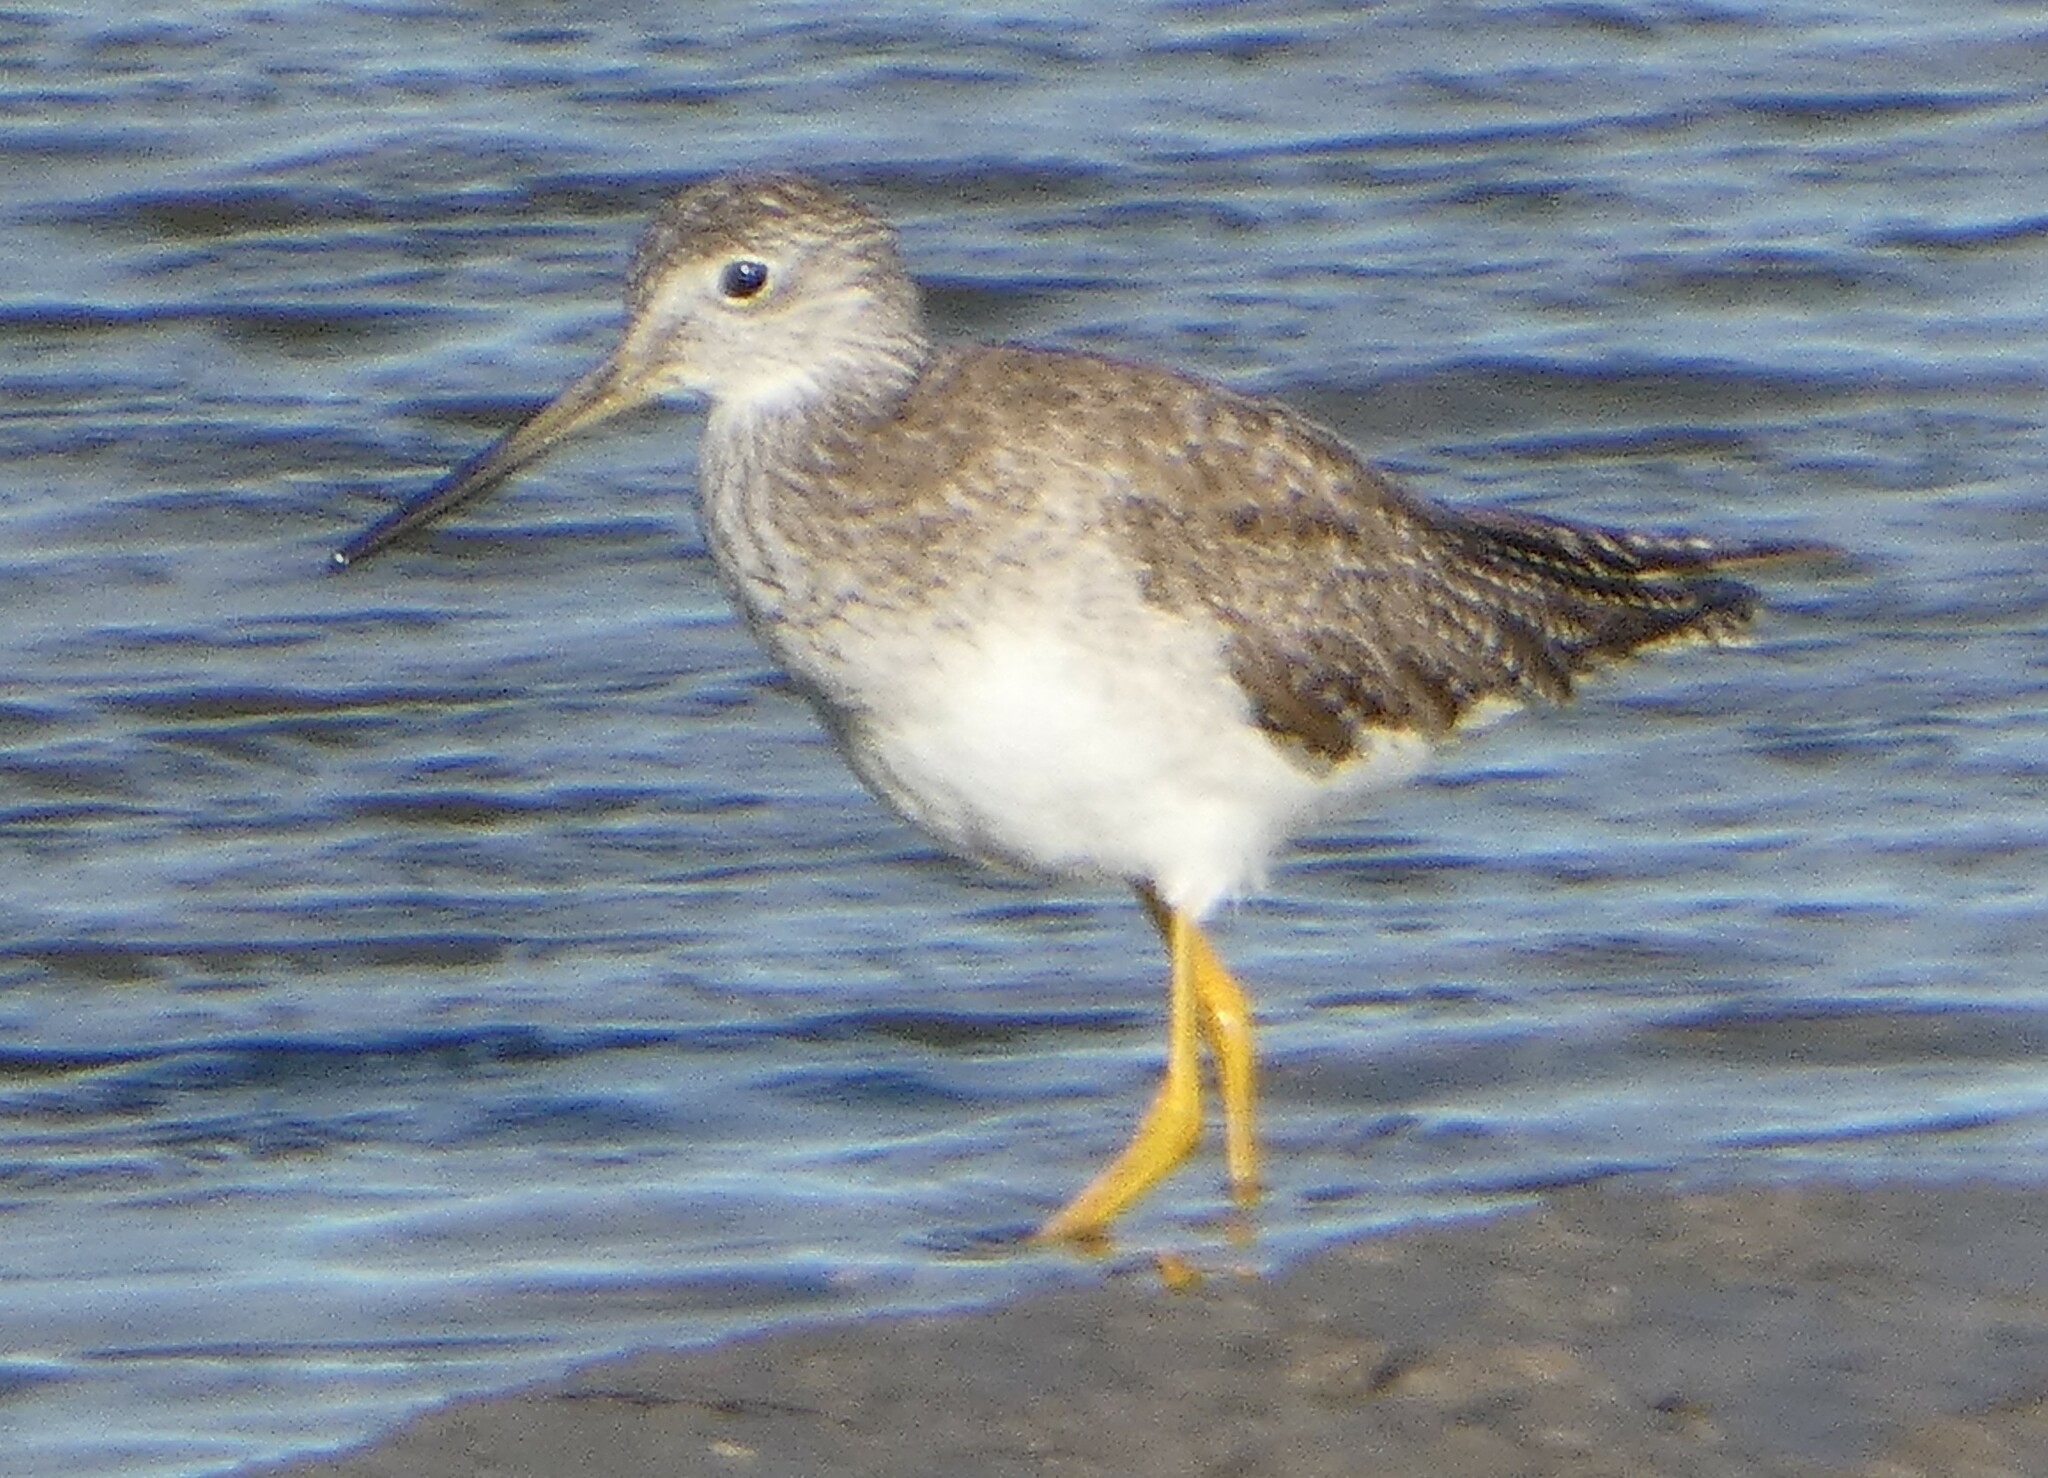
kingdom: Animalia
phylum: Chordata
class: Aves
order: Charadriiformes
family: Scolopacidae
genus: Tringa
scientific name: Tringa melanoleuca
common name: Greater yellowlegs
